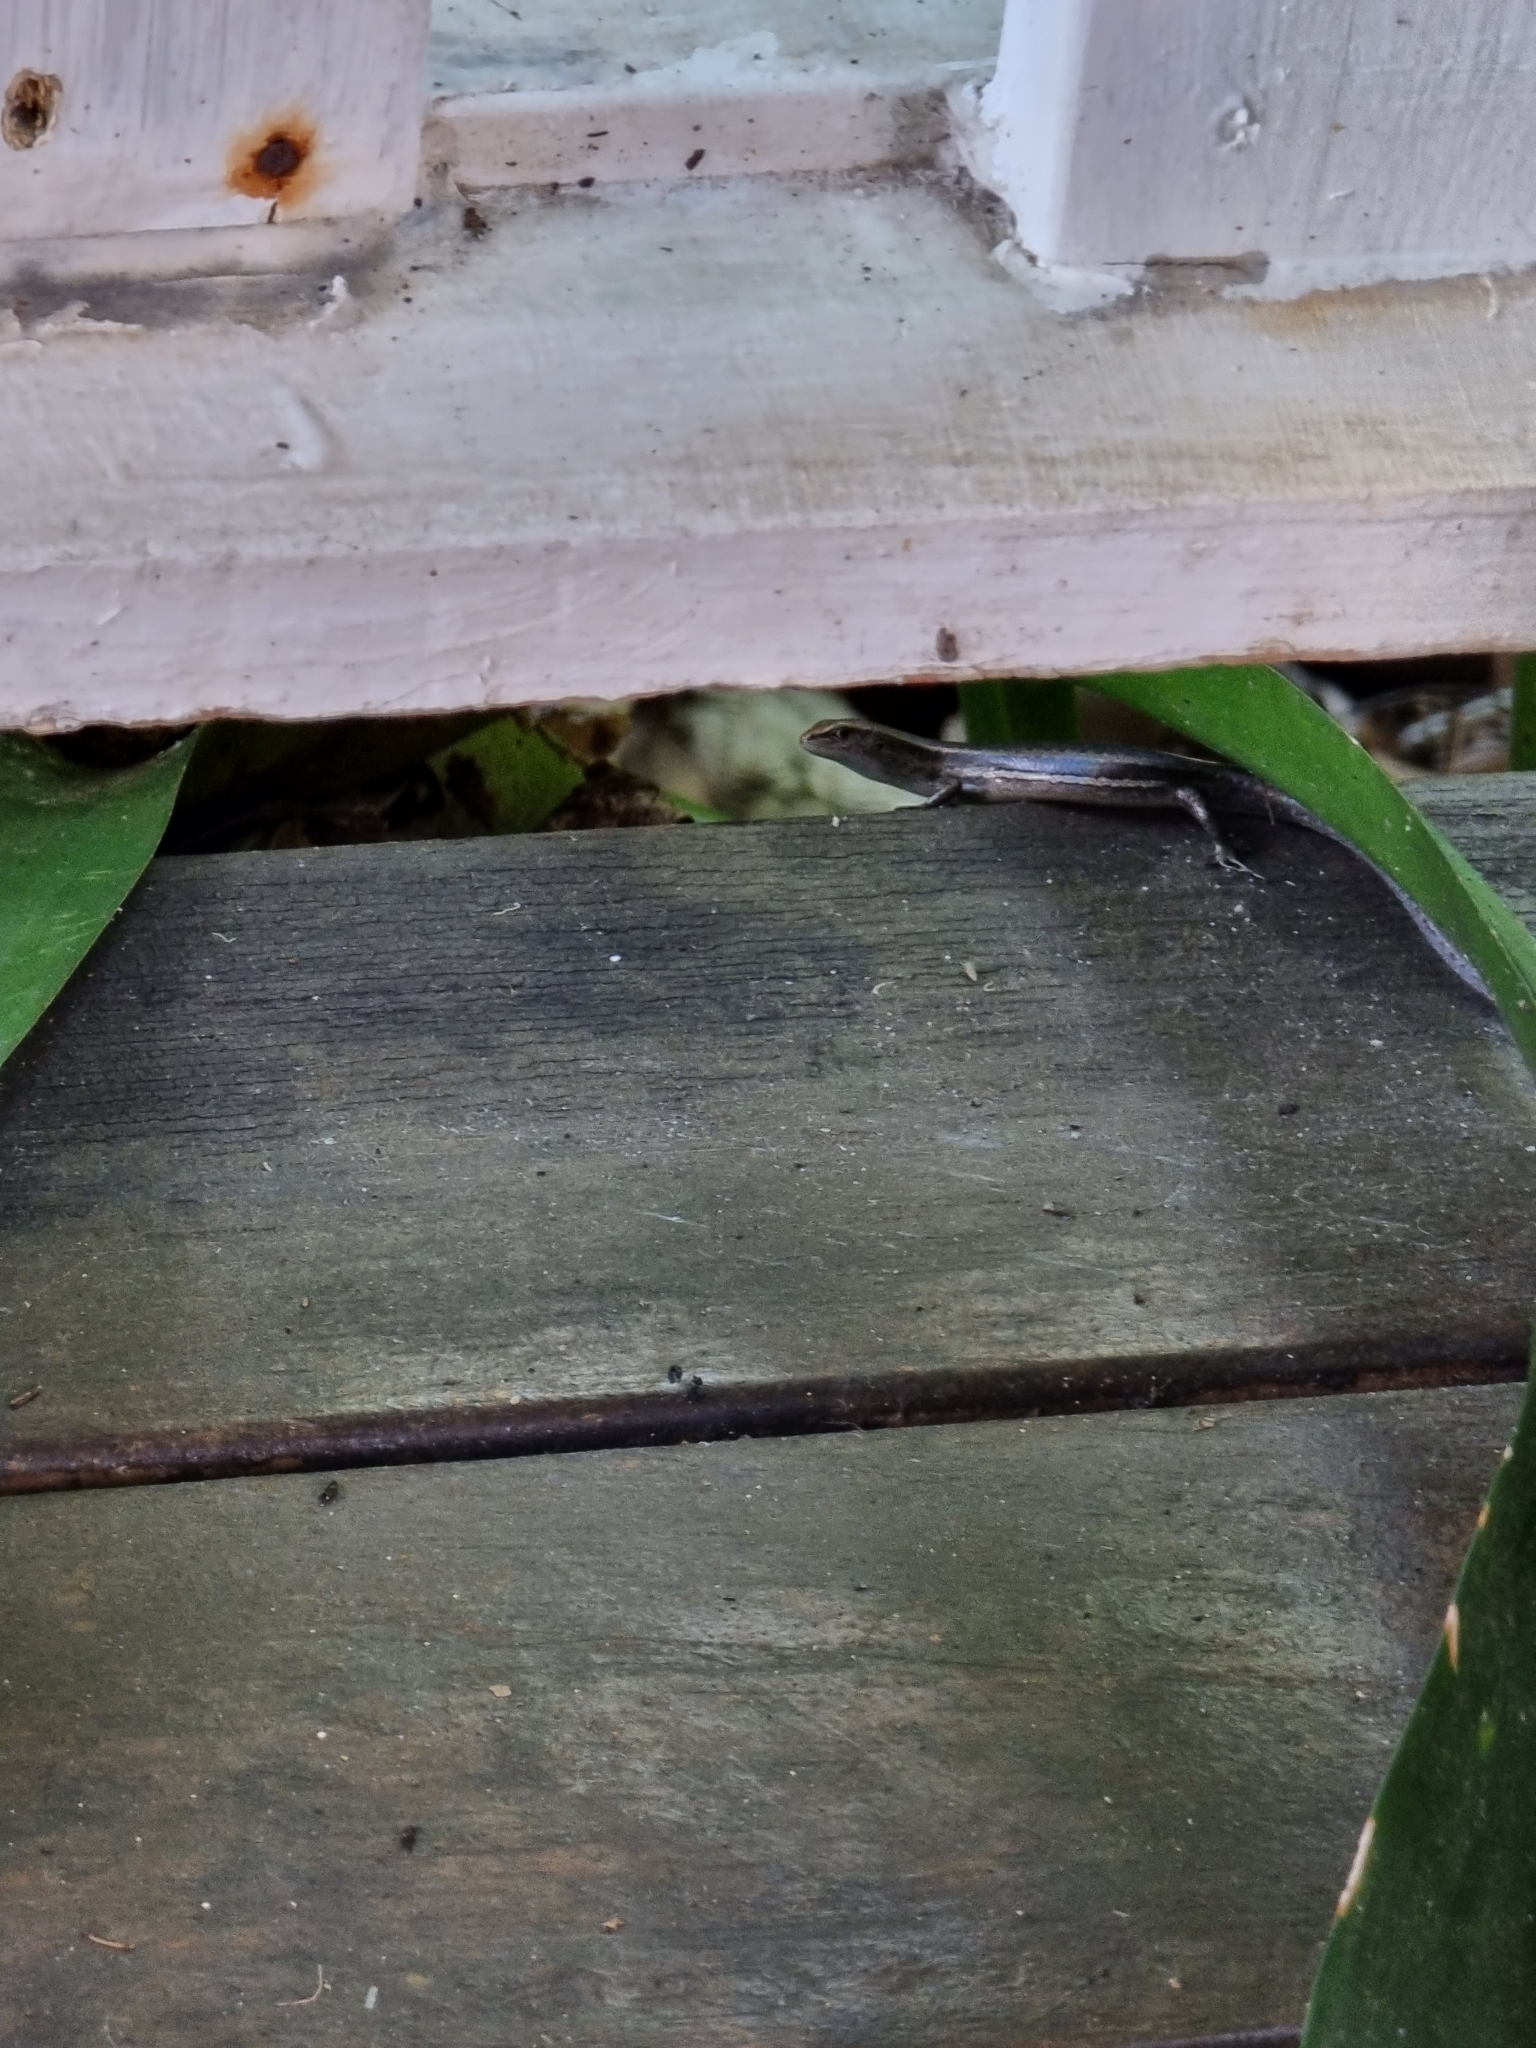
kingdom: Animalia
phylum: Chordata
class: Squamata
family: Scincidae
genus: Lampropholis
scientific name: Lampropholis delicata
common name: Plague skink
